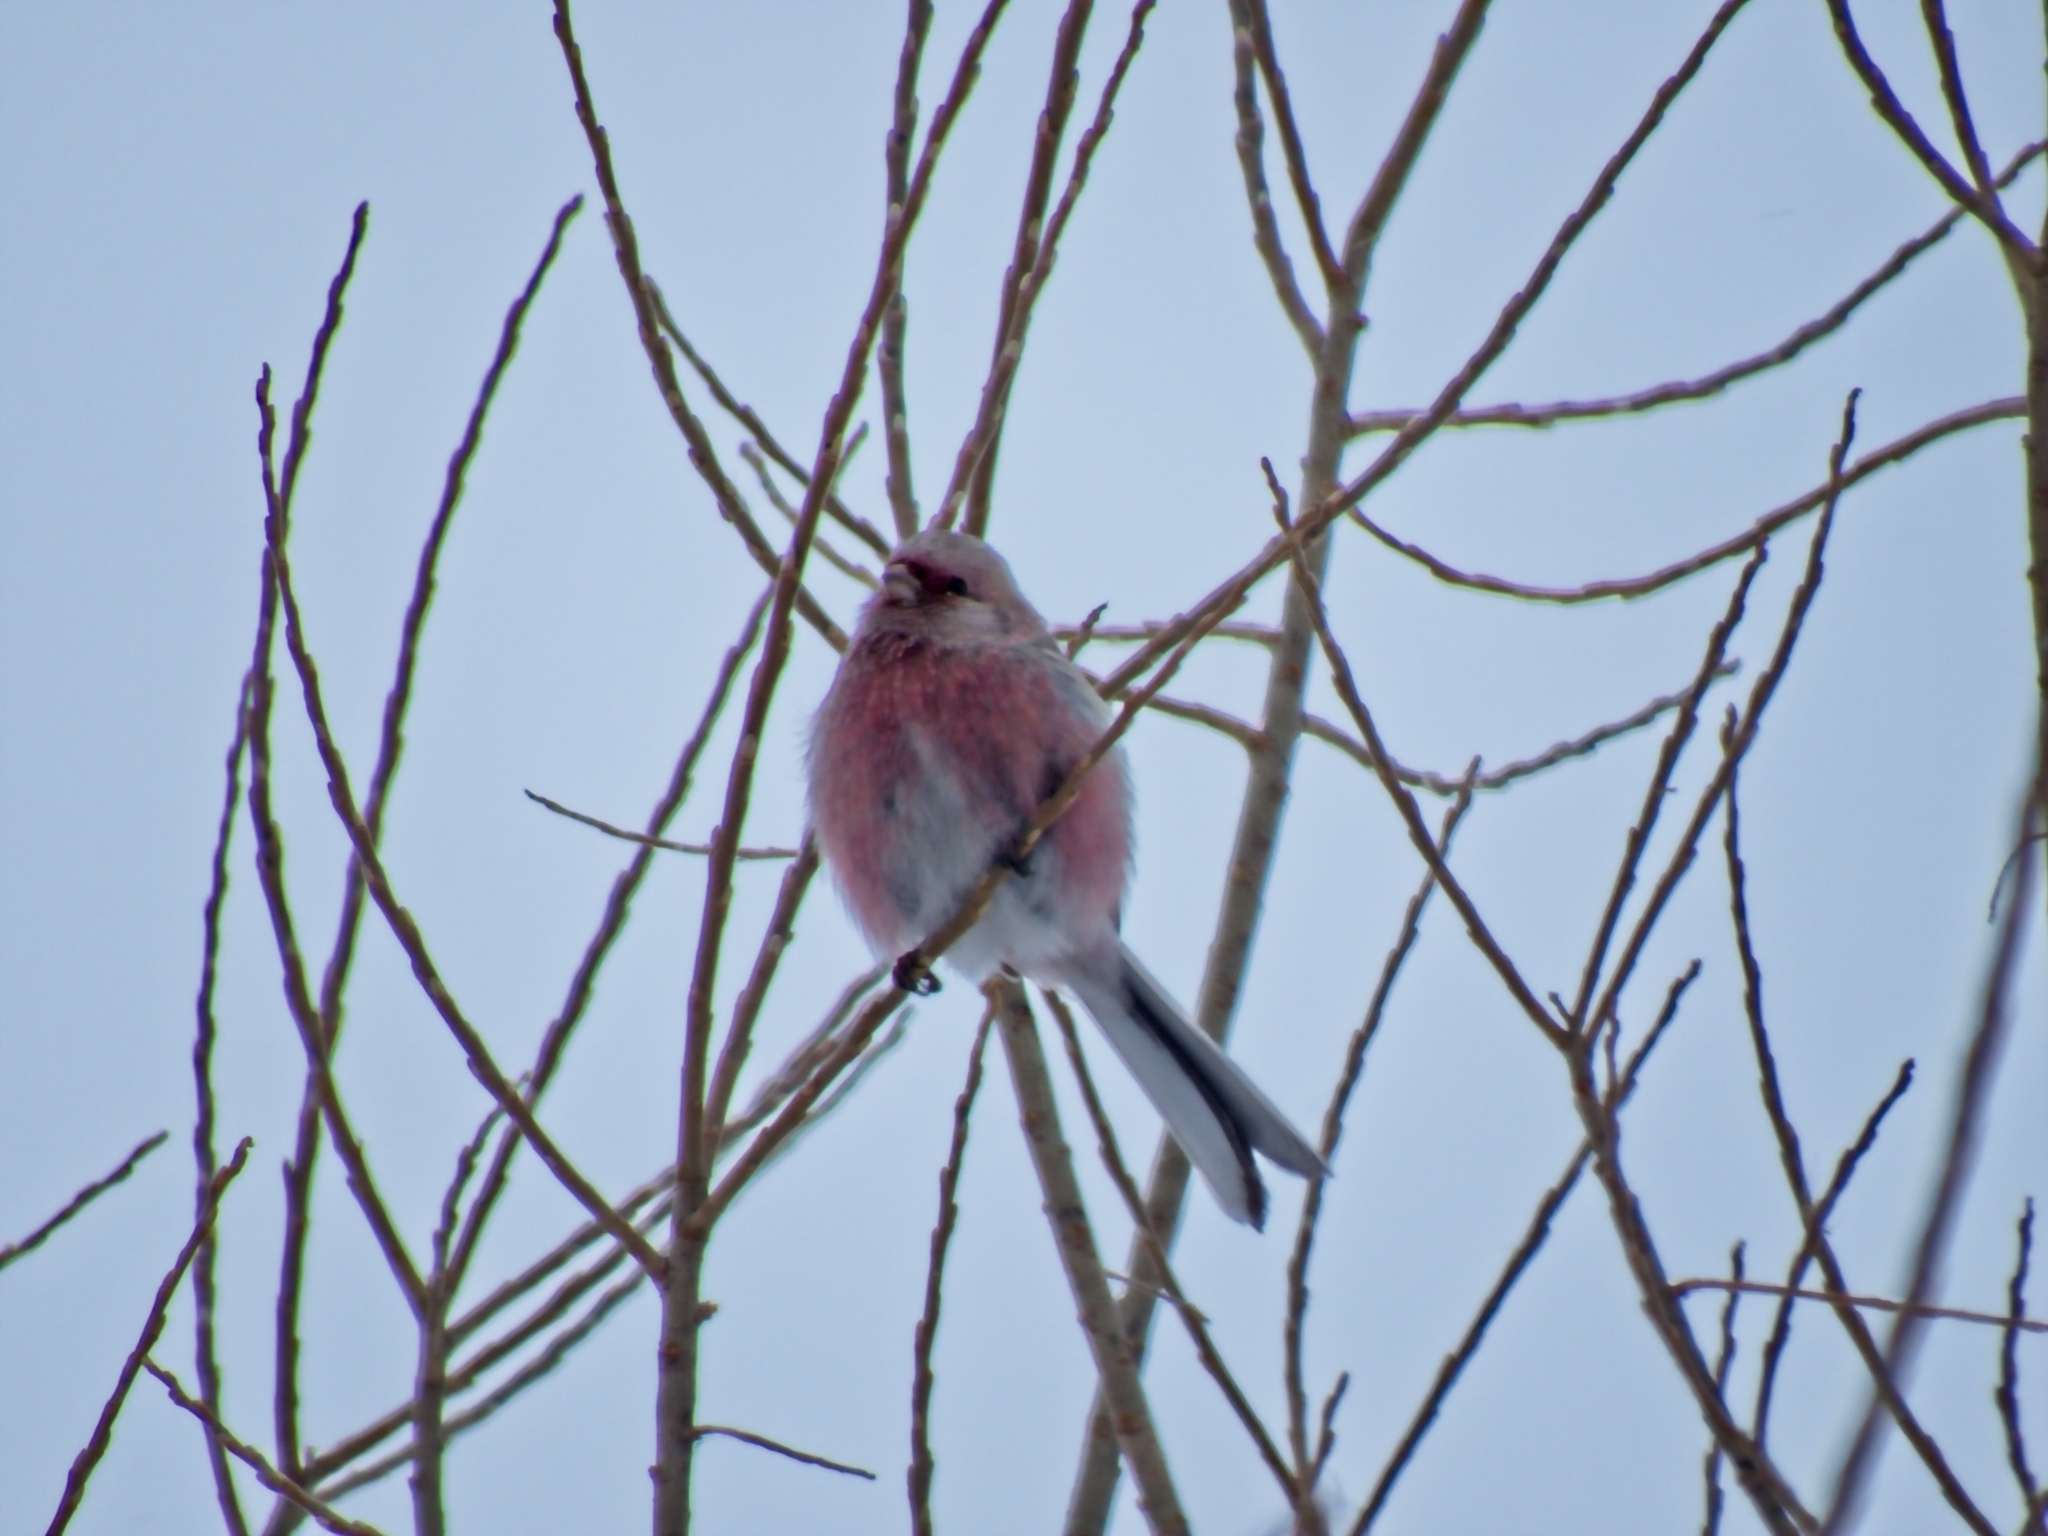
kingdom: Animalia
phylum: Chordata
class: Aves
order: Passeriformes
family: Fringillidae
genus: Carpodacus
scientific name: Carpodacus sibiricus
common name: Long-tailed rosefinch
